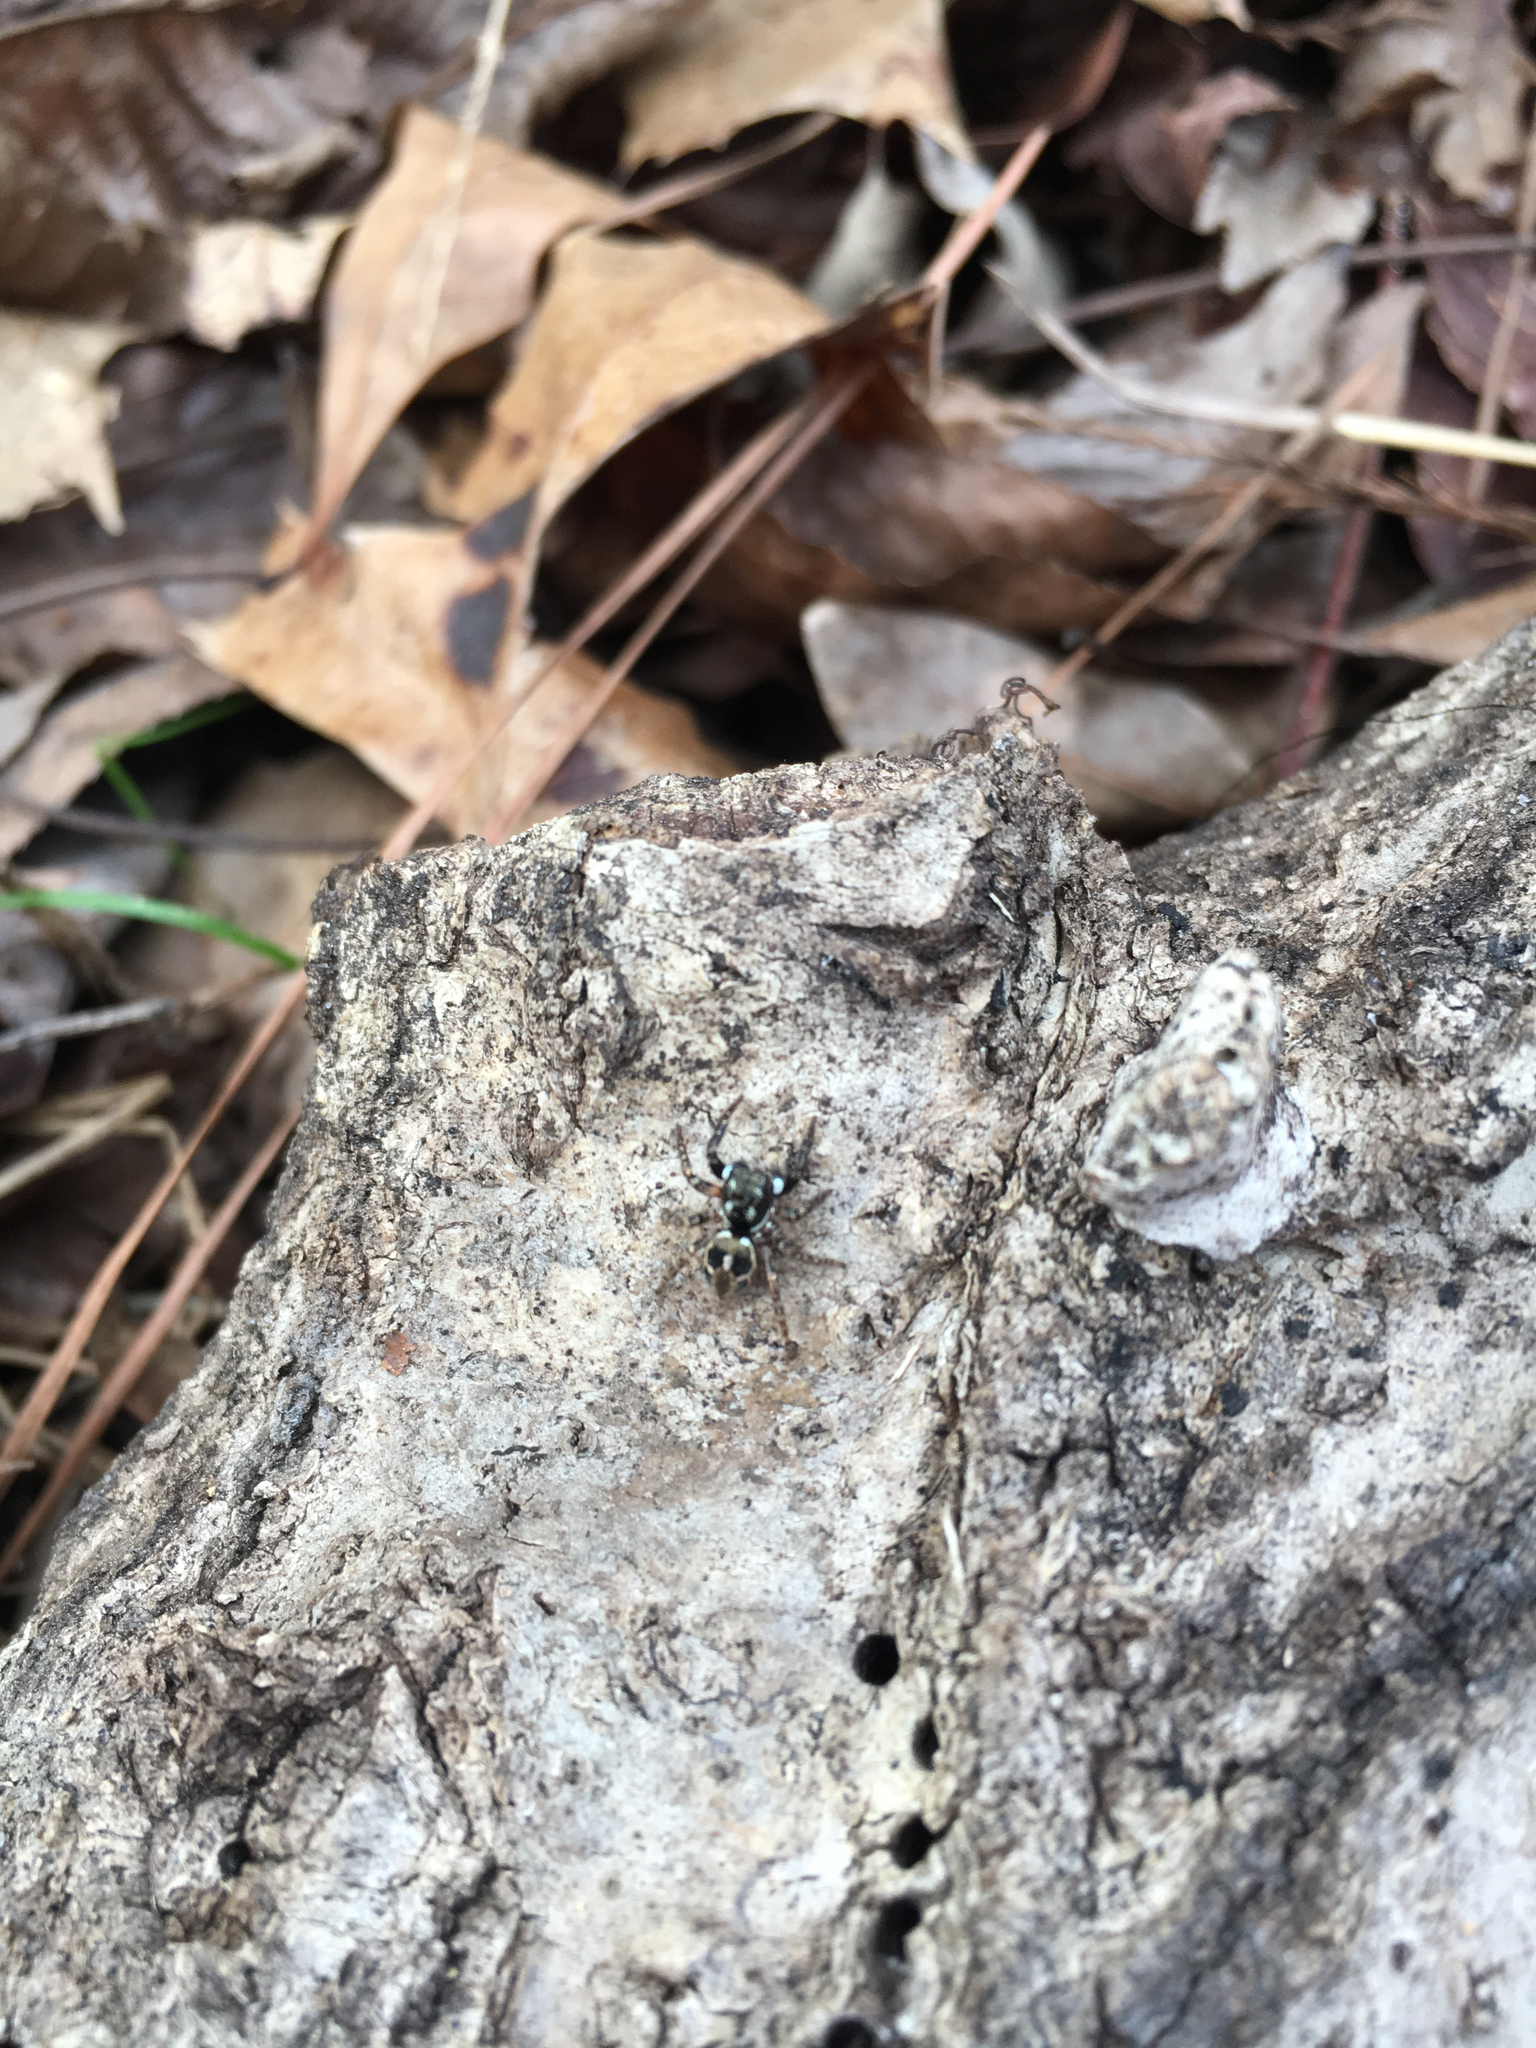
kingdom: Animalia
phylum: Arthropoda
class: Arachnida
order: Araneae
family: Salticidae
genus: Anasaitis
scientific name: Anasaitis canosa
